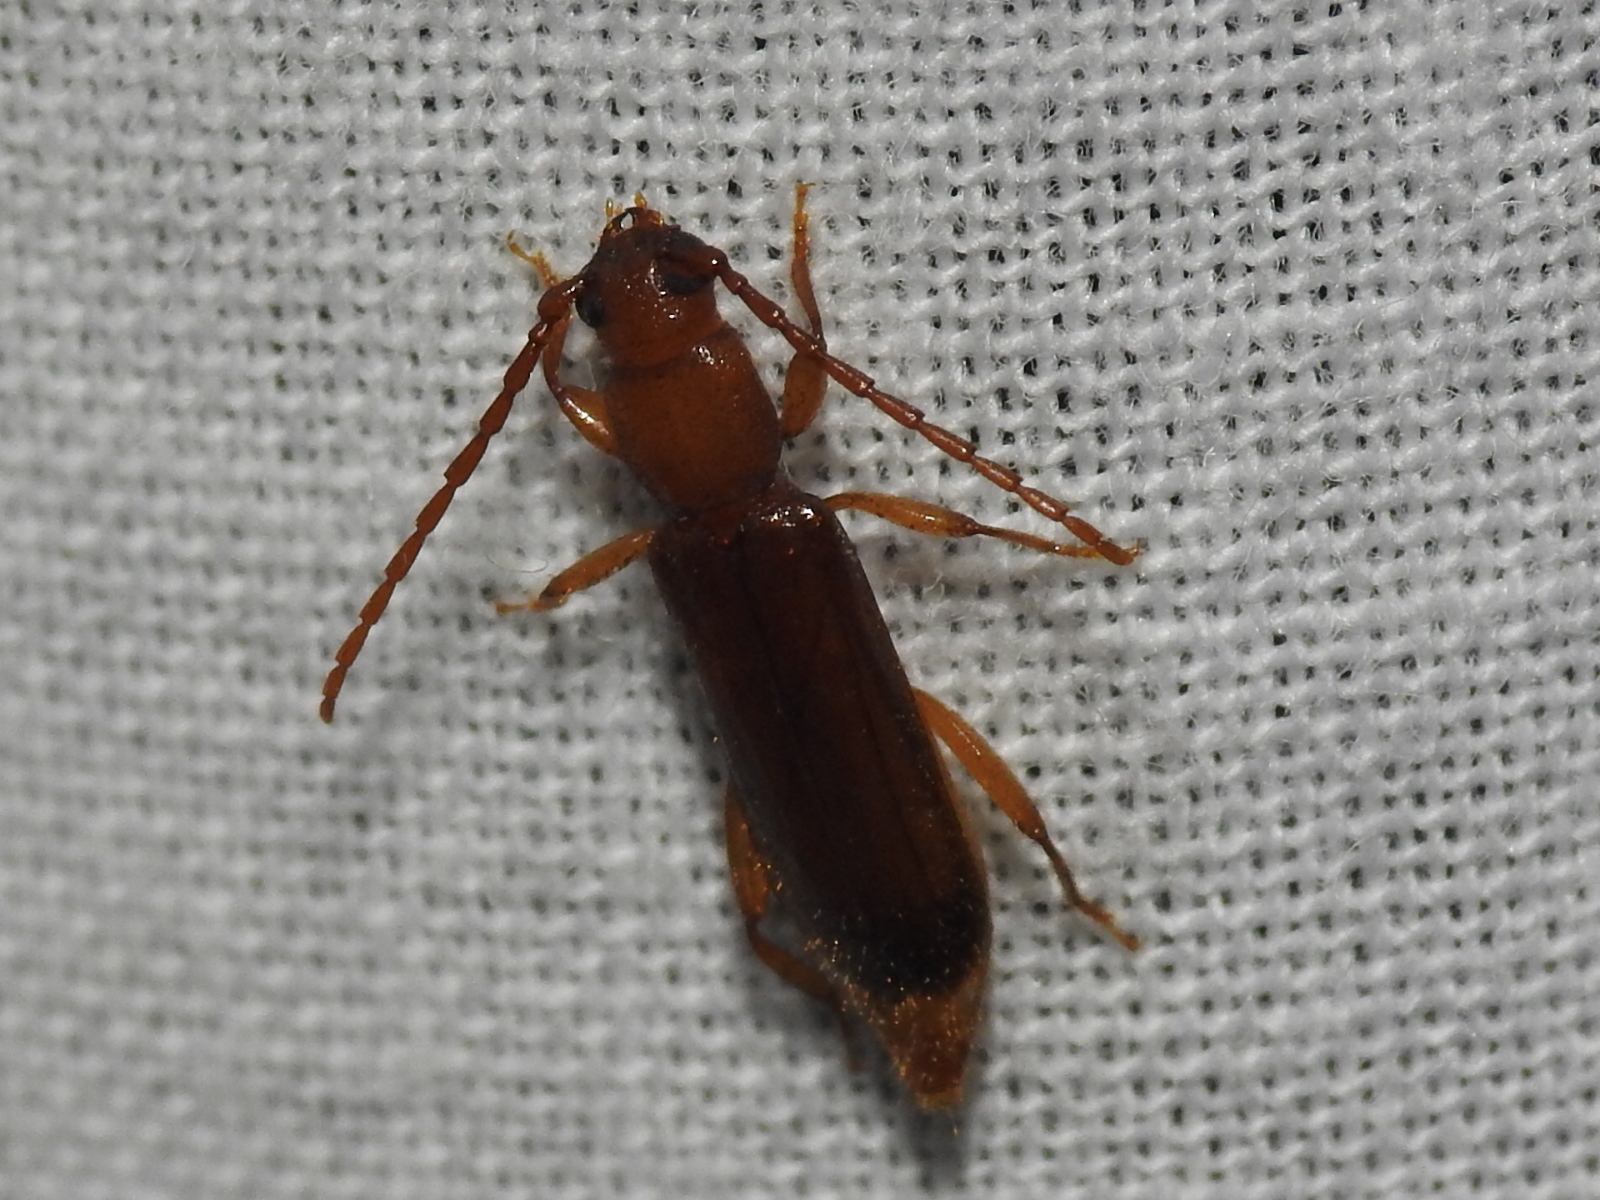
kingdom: Animalia
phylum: Arthropoda
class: Insecta
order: Coleoptera
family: Cerambycidae
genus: Smodicum
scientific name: Smodicum cucujiforme
